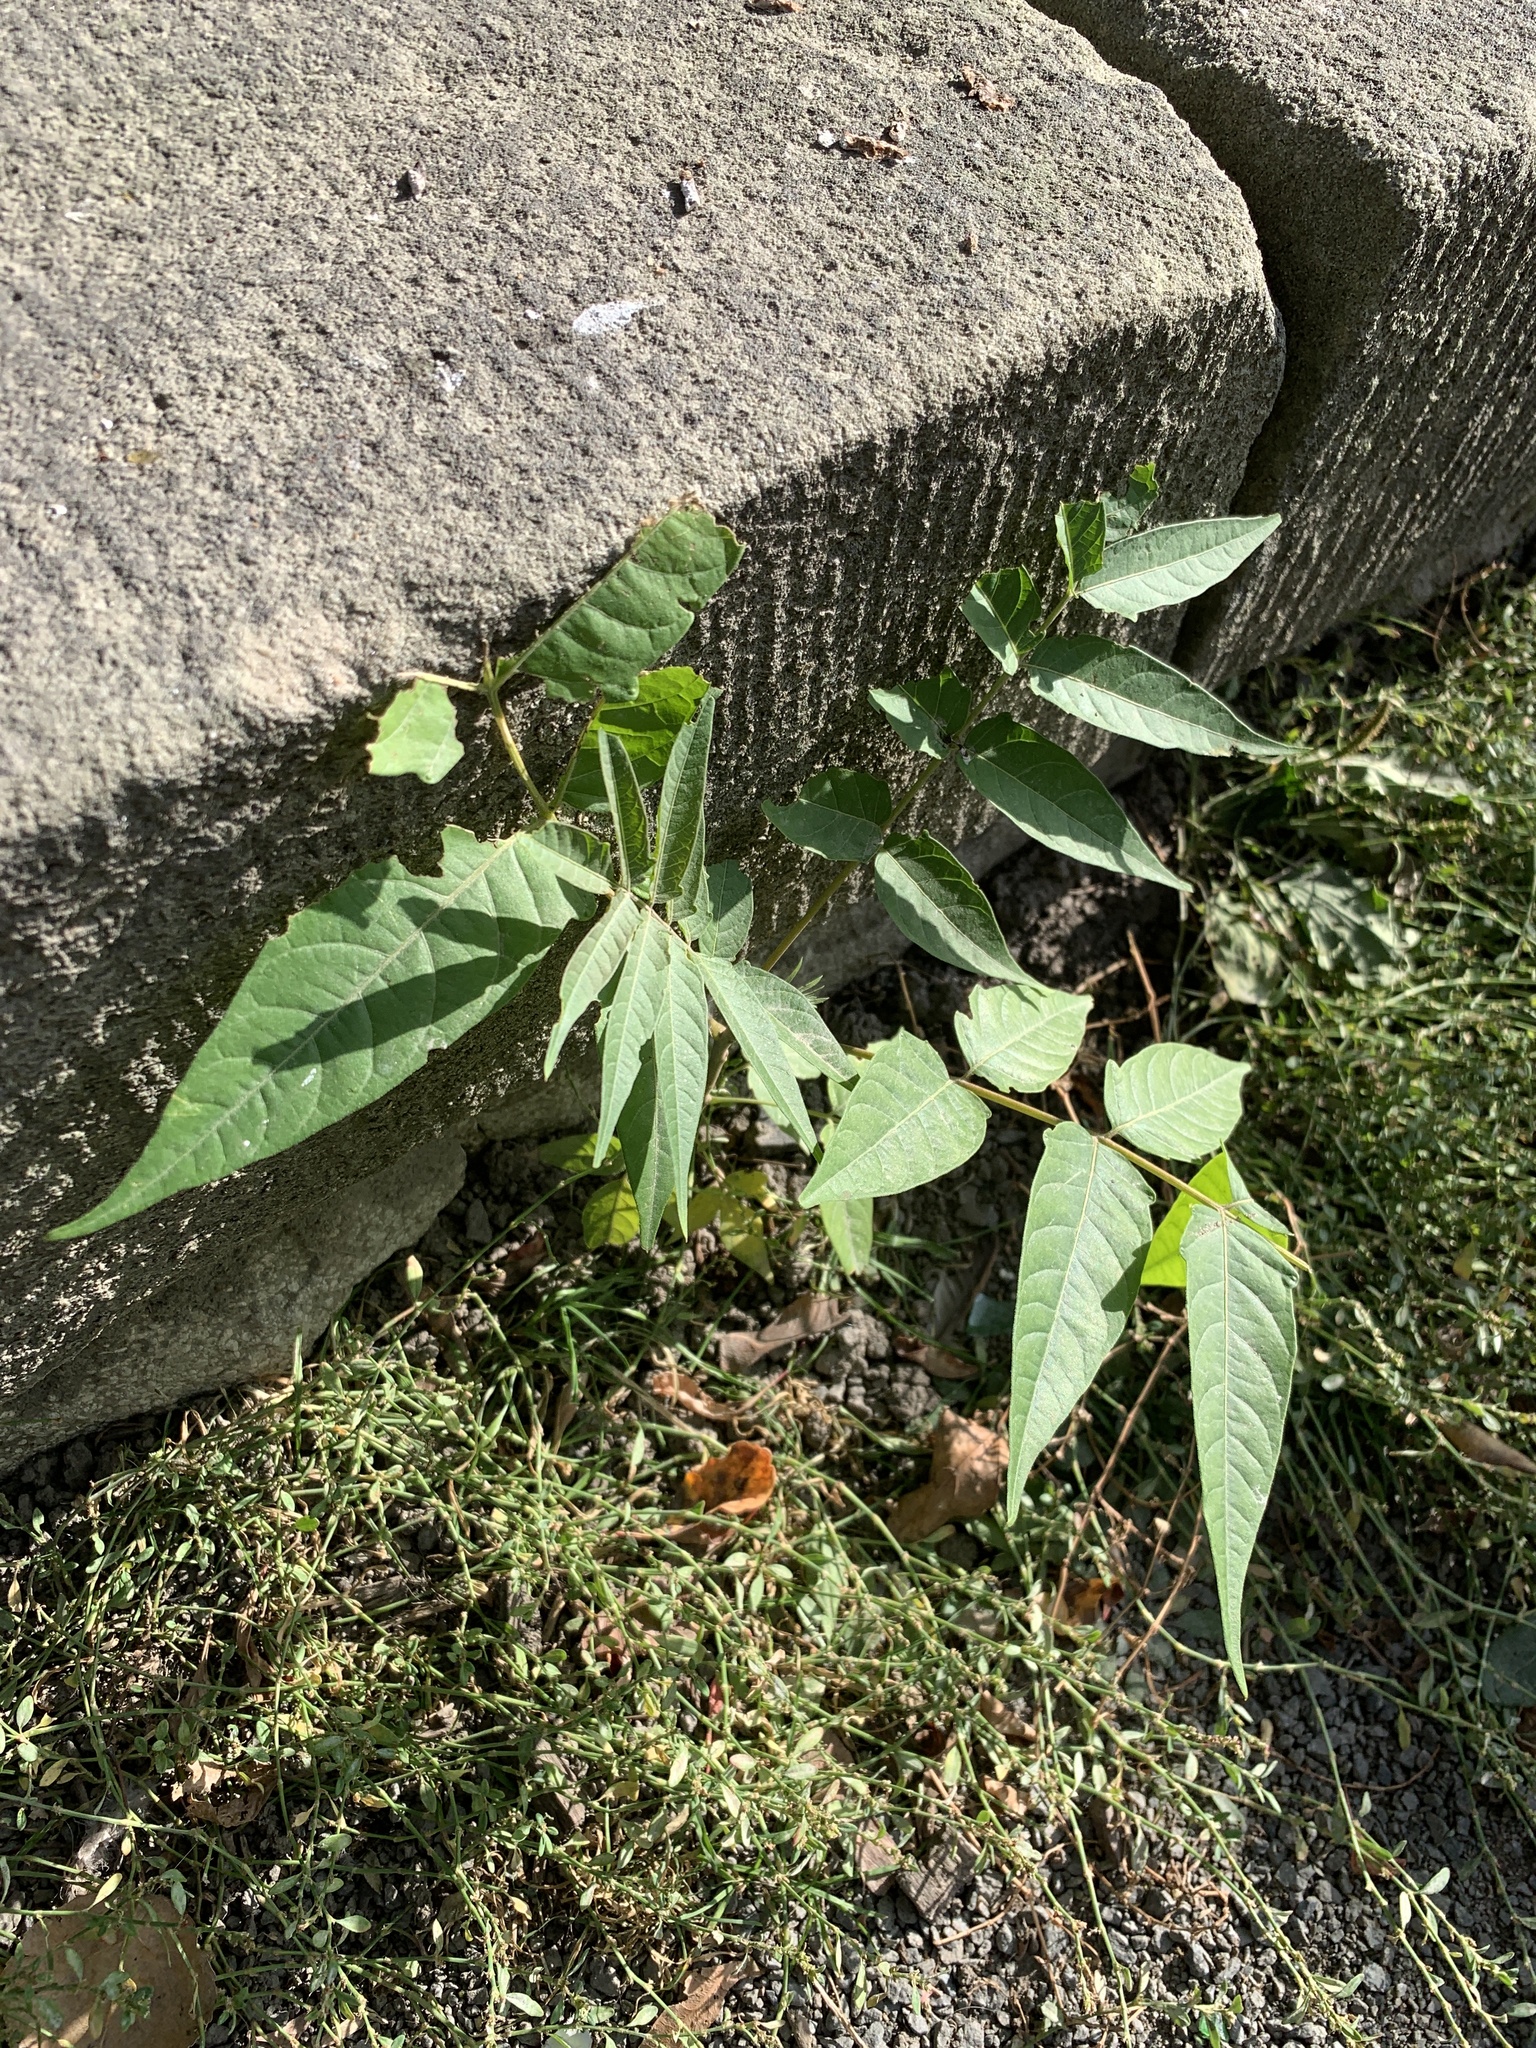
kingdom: Plantae
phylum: Tracheophyta
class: Magnoliopsida
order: Sapindales
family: Simaroubaceae
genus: Ailanthus
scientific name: Ailanthus altissima
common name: Tree-of-heaven
